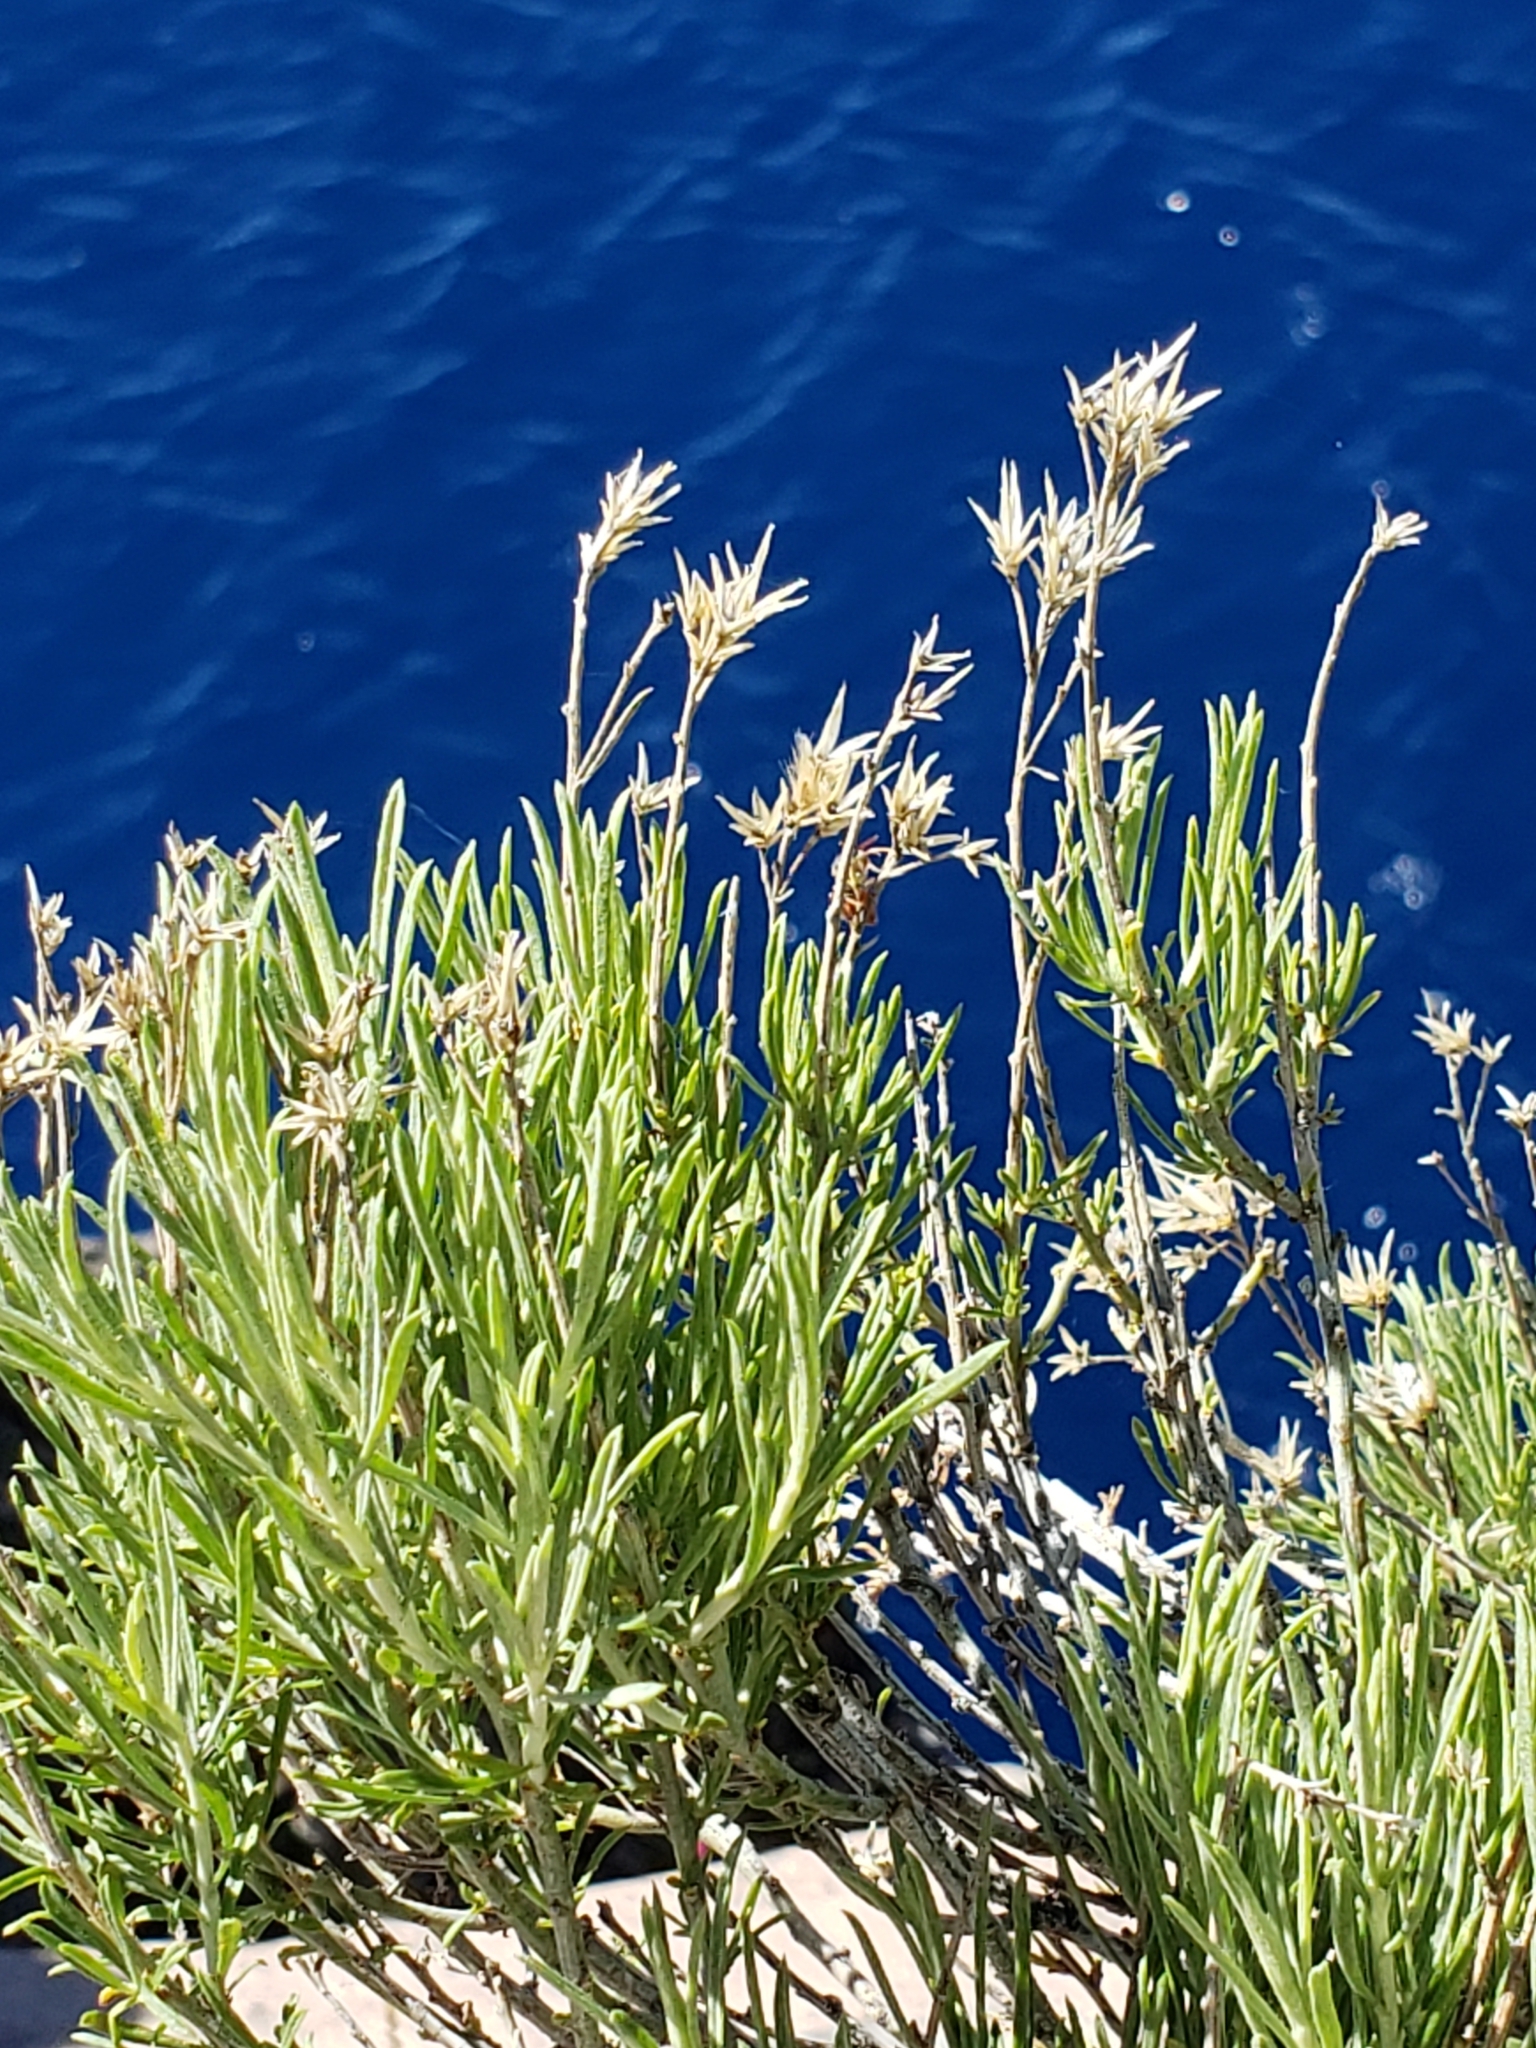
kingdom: Plantae
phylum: Tracheophyta
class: Magnoliopsida
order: Asterales
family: Asteraceae
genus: Ericameria
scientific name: Ericameria nauseosa
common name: Rubber rabbitbrush
